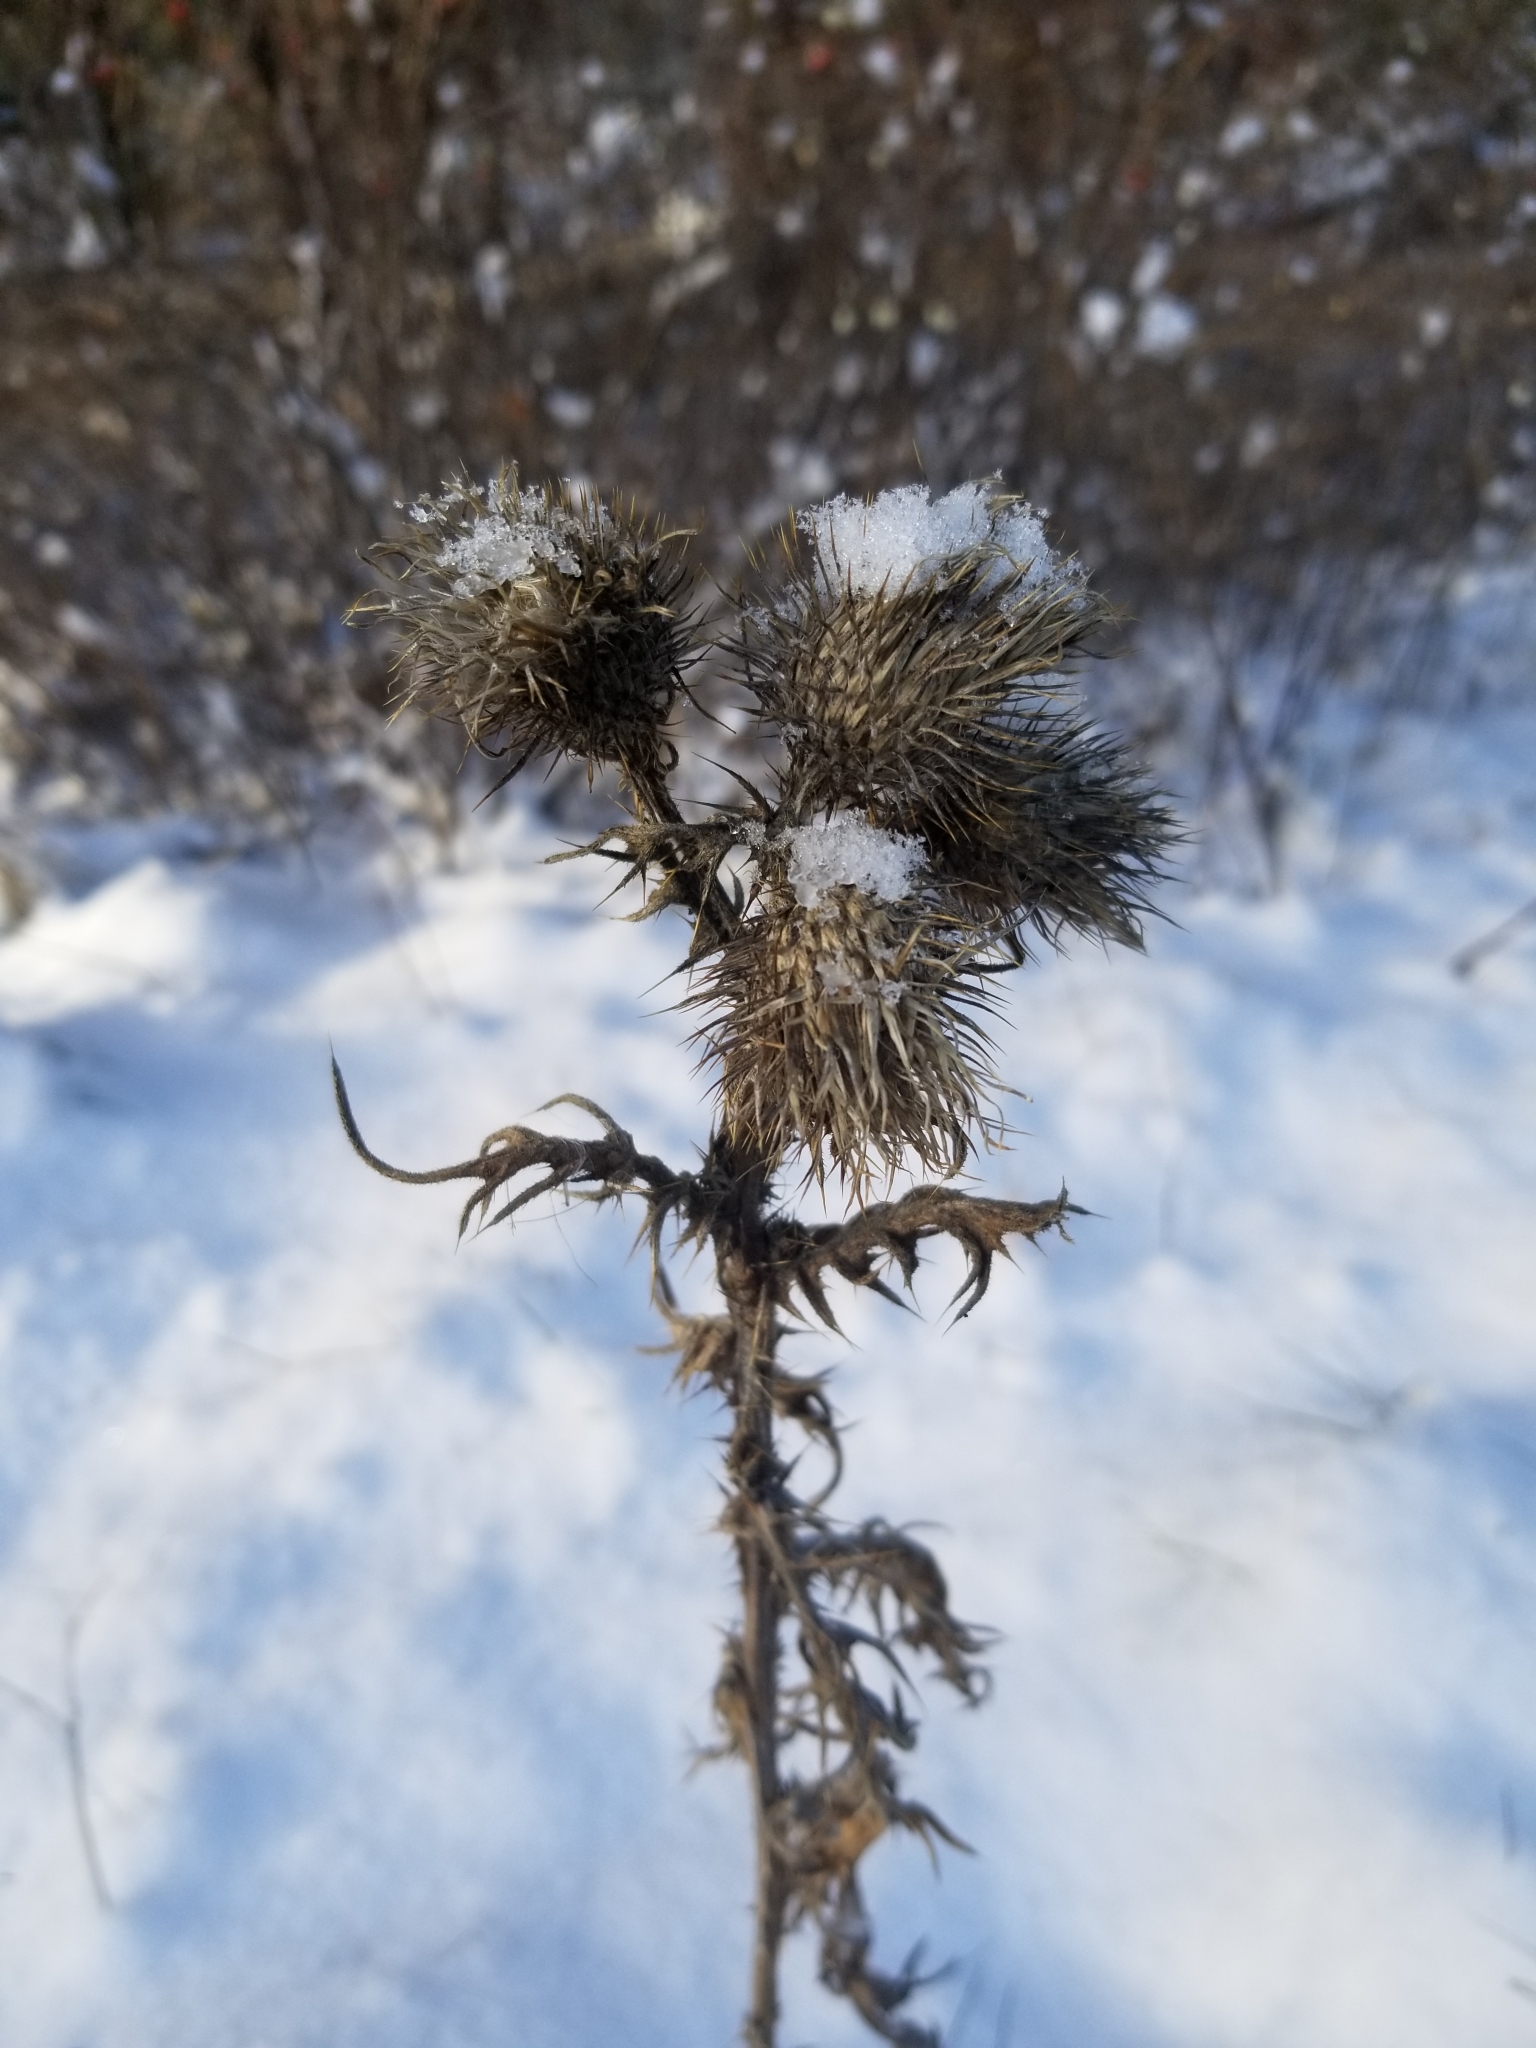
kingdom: Plantae
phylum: Tracheophyta
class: Magnoliopsida
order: Asterales
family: Asteraceae
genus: Cirsium
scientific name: Cirsium vulgare
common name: Bull thistle
